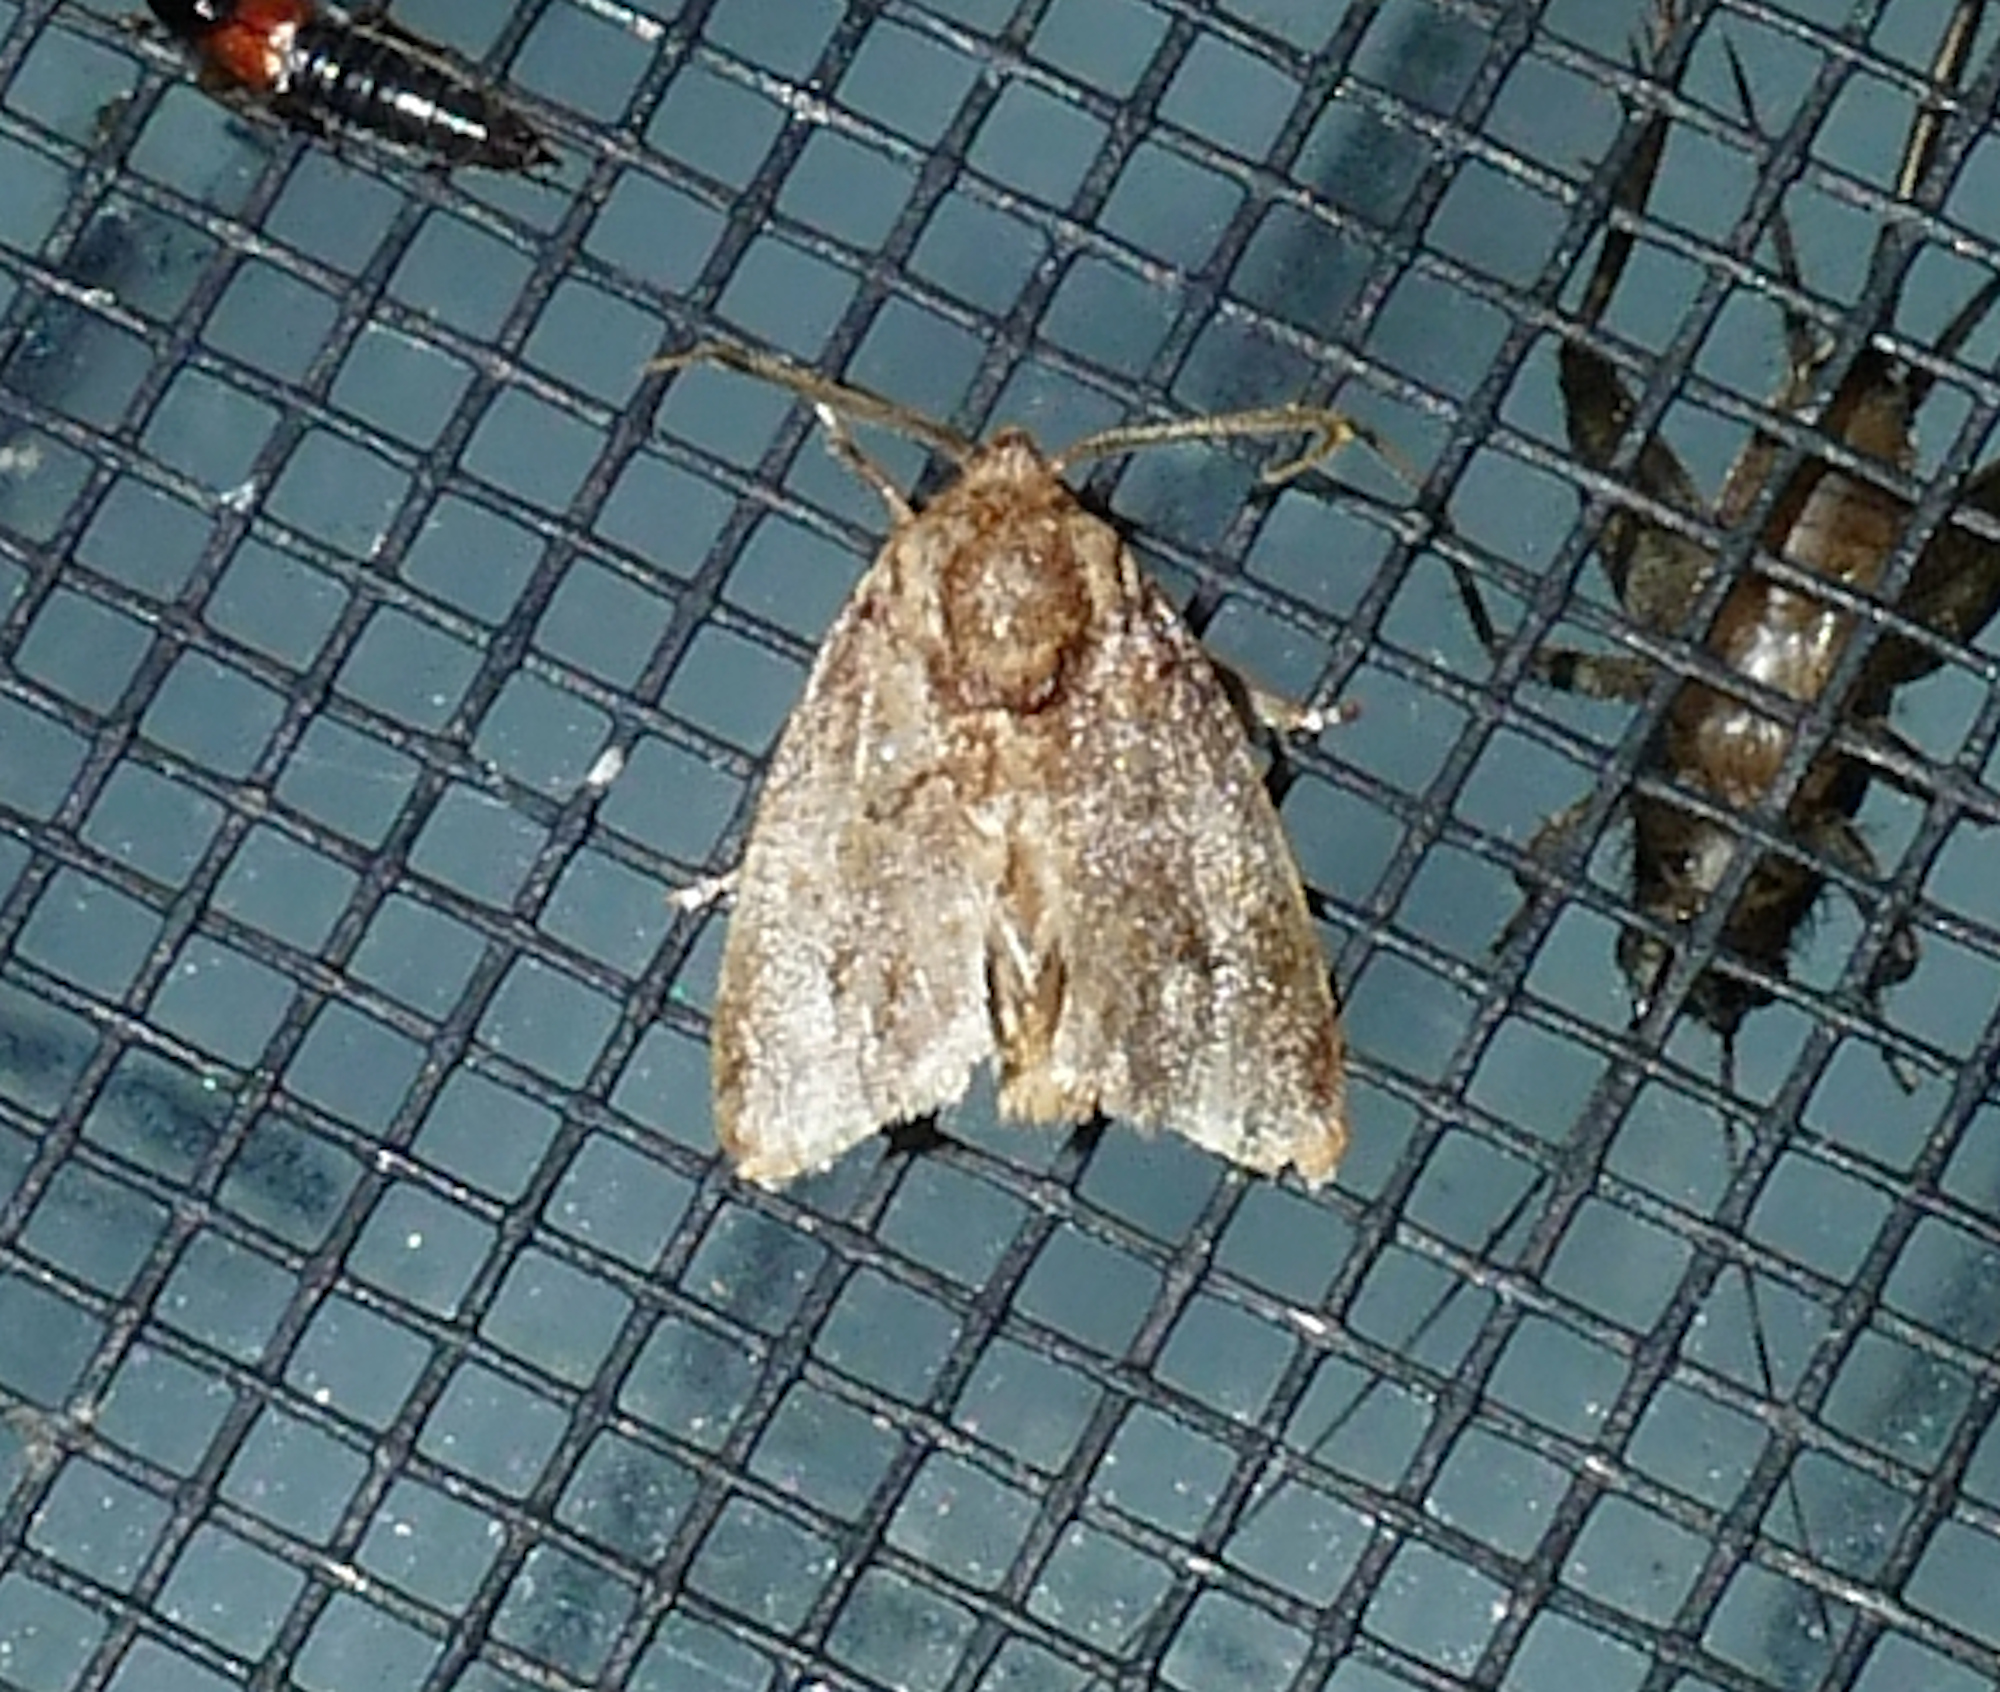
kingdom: Animalia
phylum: Arthropoda
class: Insecta
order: Lepidoptera
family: Limacodidae
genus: Isochaetes
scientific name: Isochaetes beutenmuelleri
